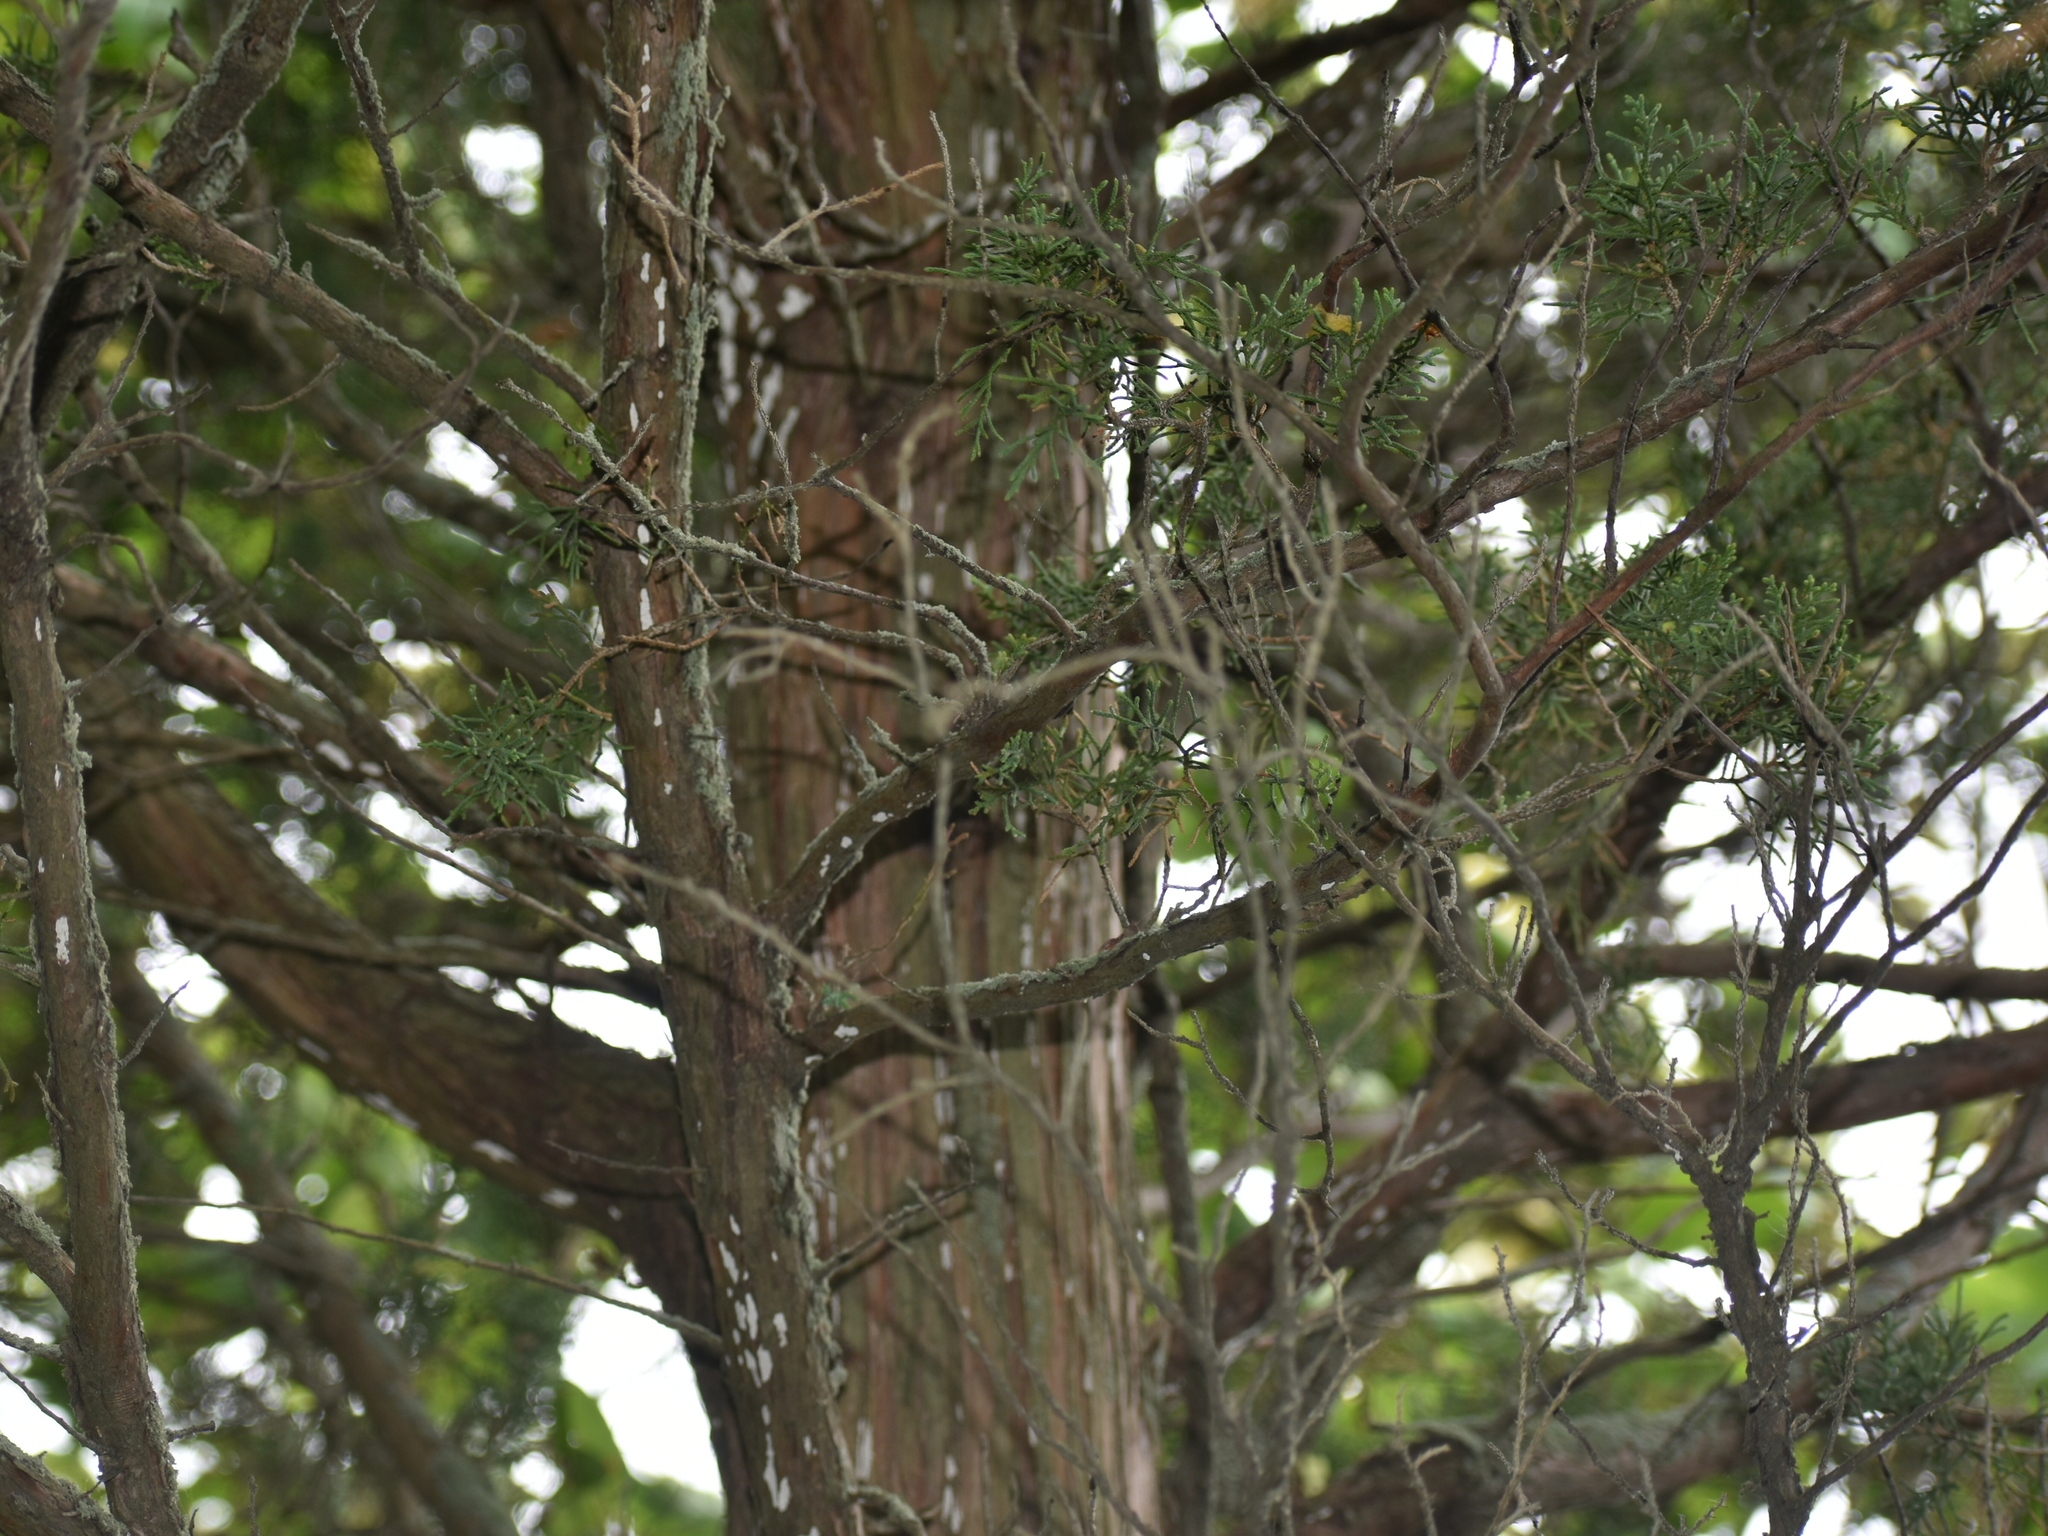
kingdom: Plantae
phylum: Tracheophyta
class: Pinopsida
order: Pinales
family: Cupressaceae
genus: Juniperus
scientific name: Juniperus virginiana
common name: Red juniper
